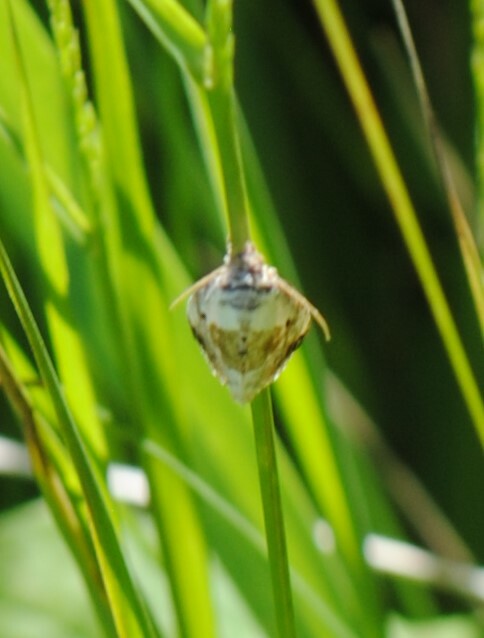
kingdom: Animalia
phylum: Arthropoda
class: Insecta
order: Lepidoptera
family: Noctuidae
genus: Maliattha
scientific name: Maliattha synochitis
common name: Black-dotted glyph
